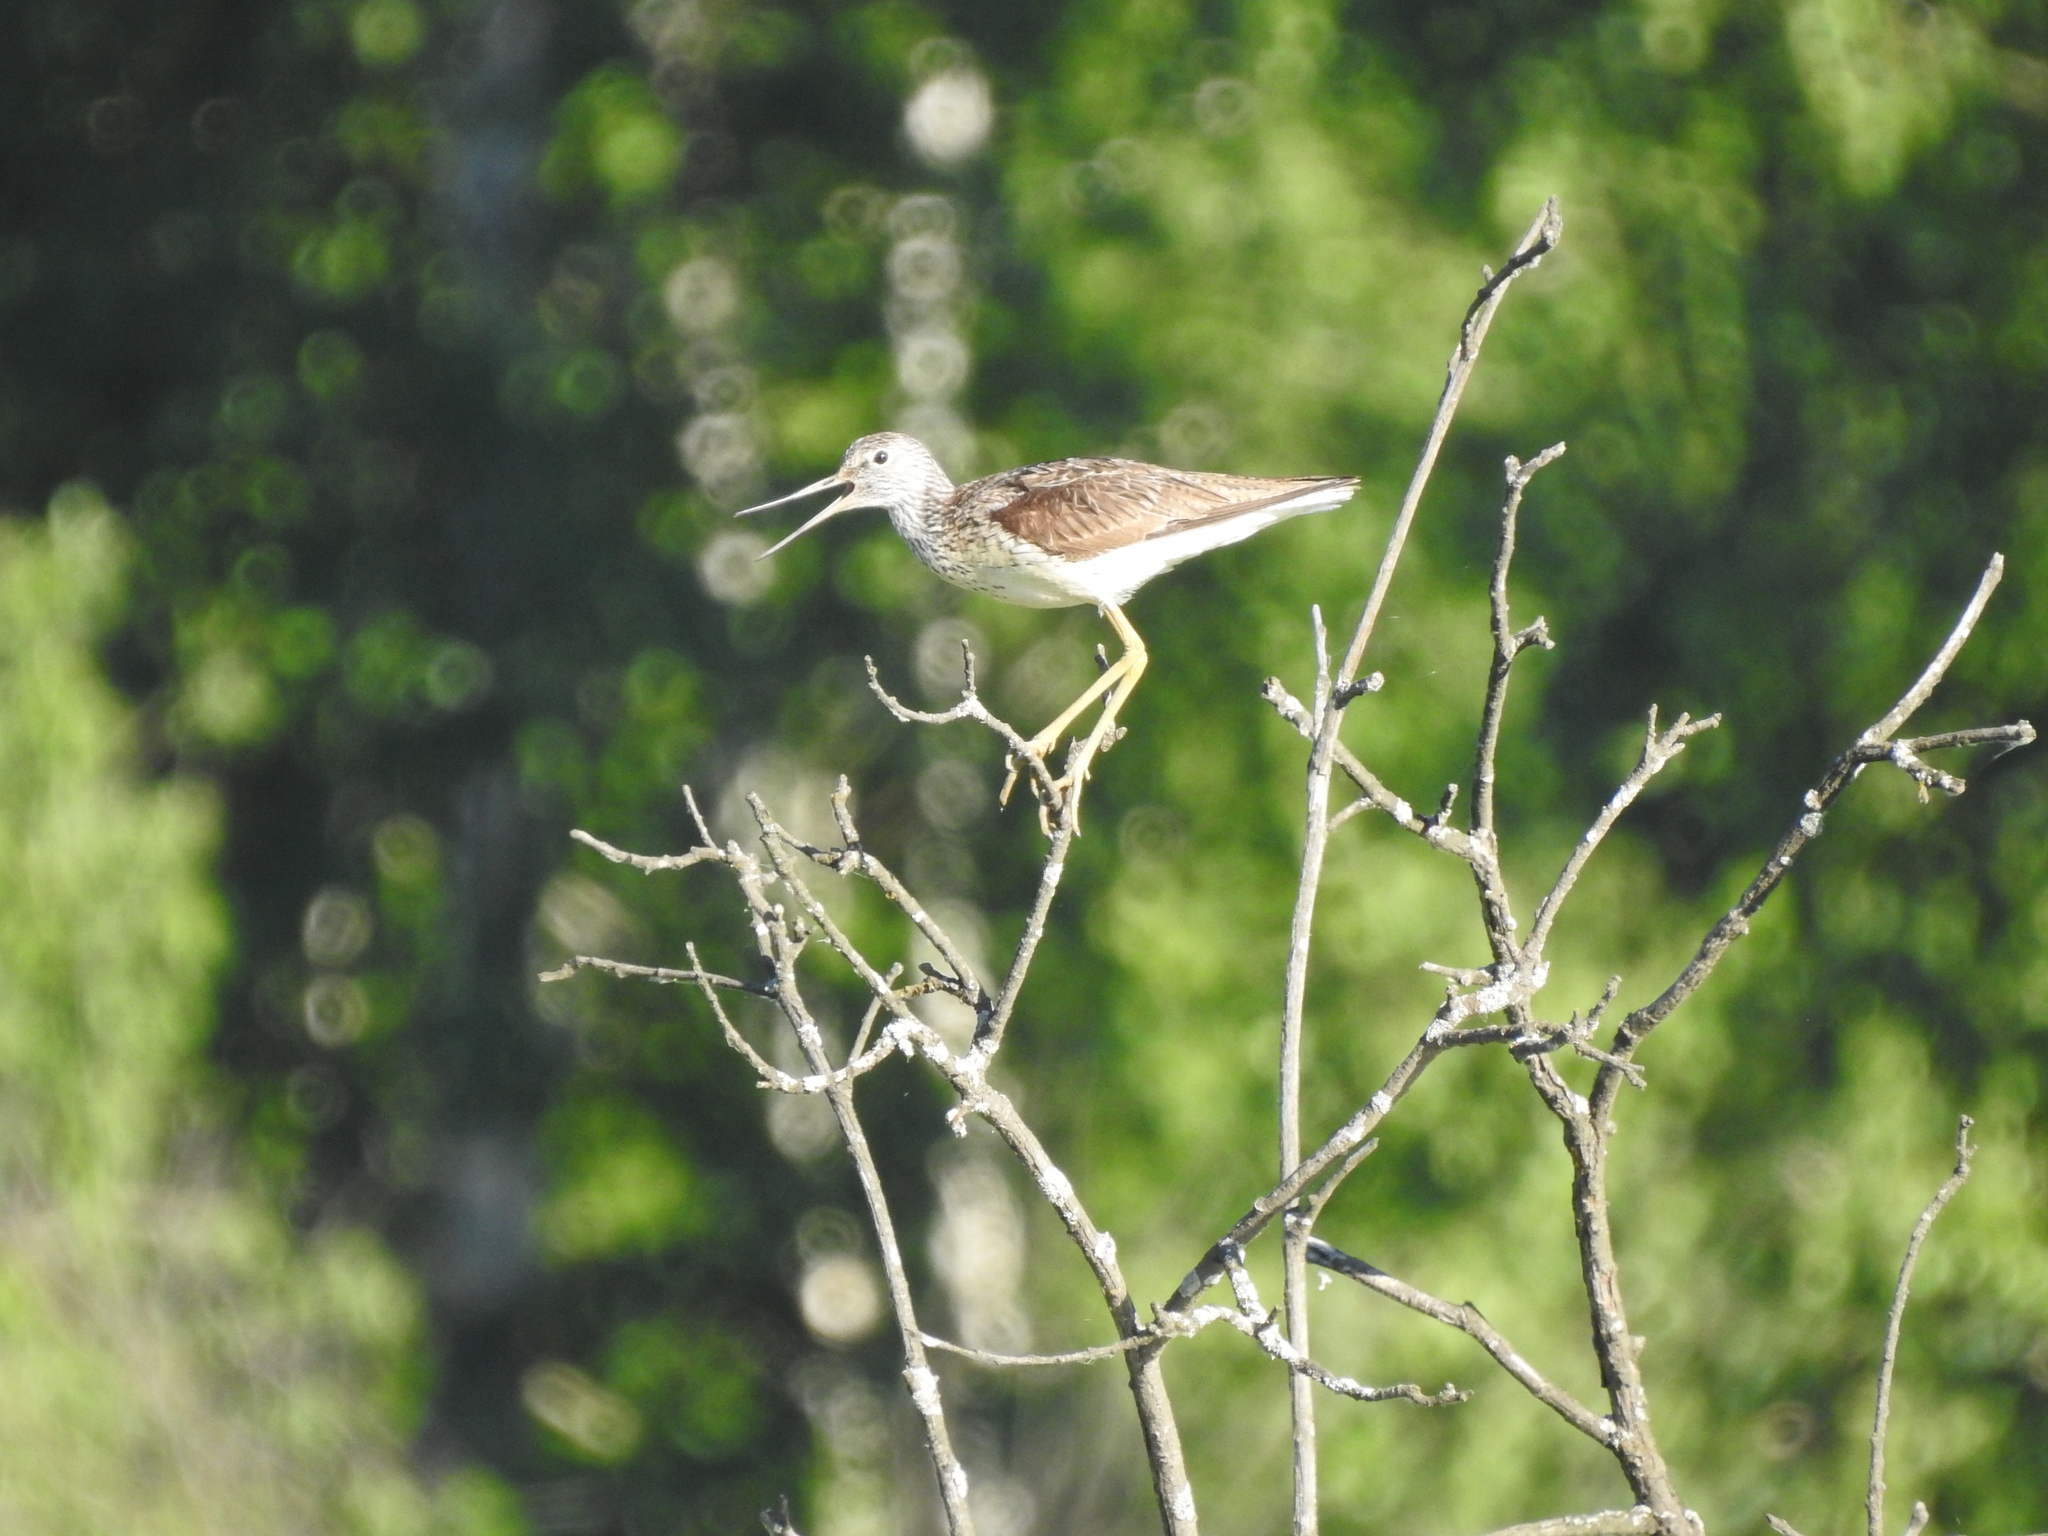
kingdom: Animalia
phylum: Chordata
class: Aves
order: Charadriiformes
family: Scolopacidae
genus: Tringa
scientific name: Tringa nebularia
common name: Common greenshank
